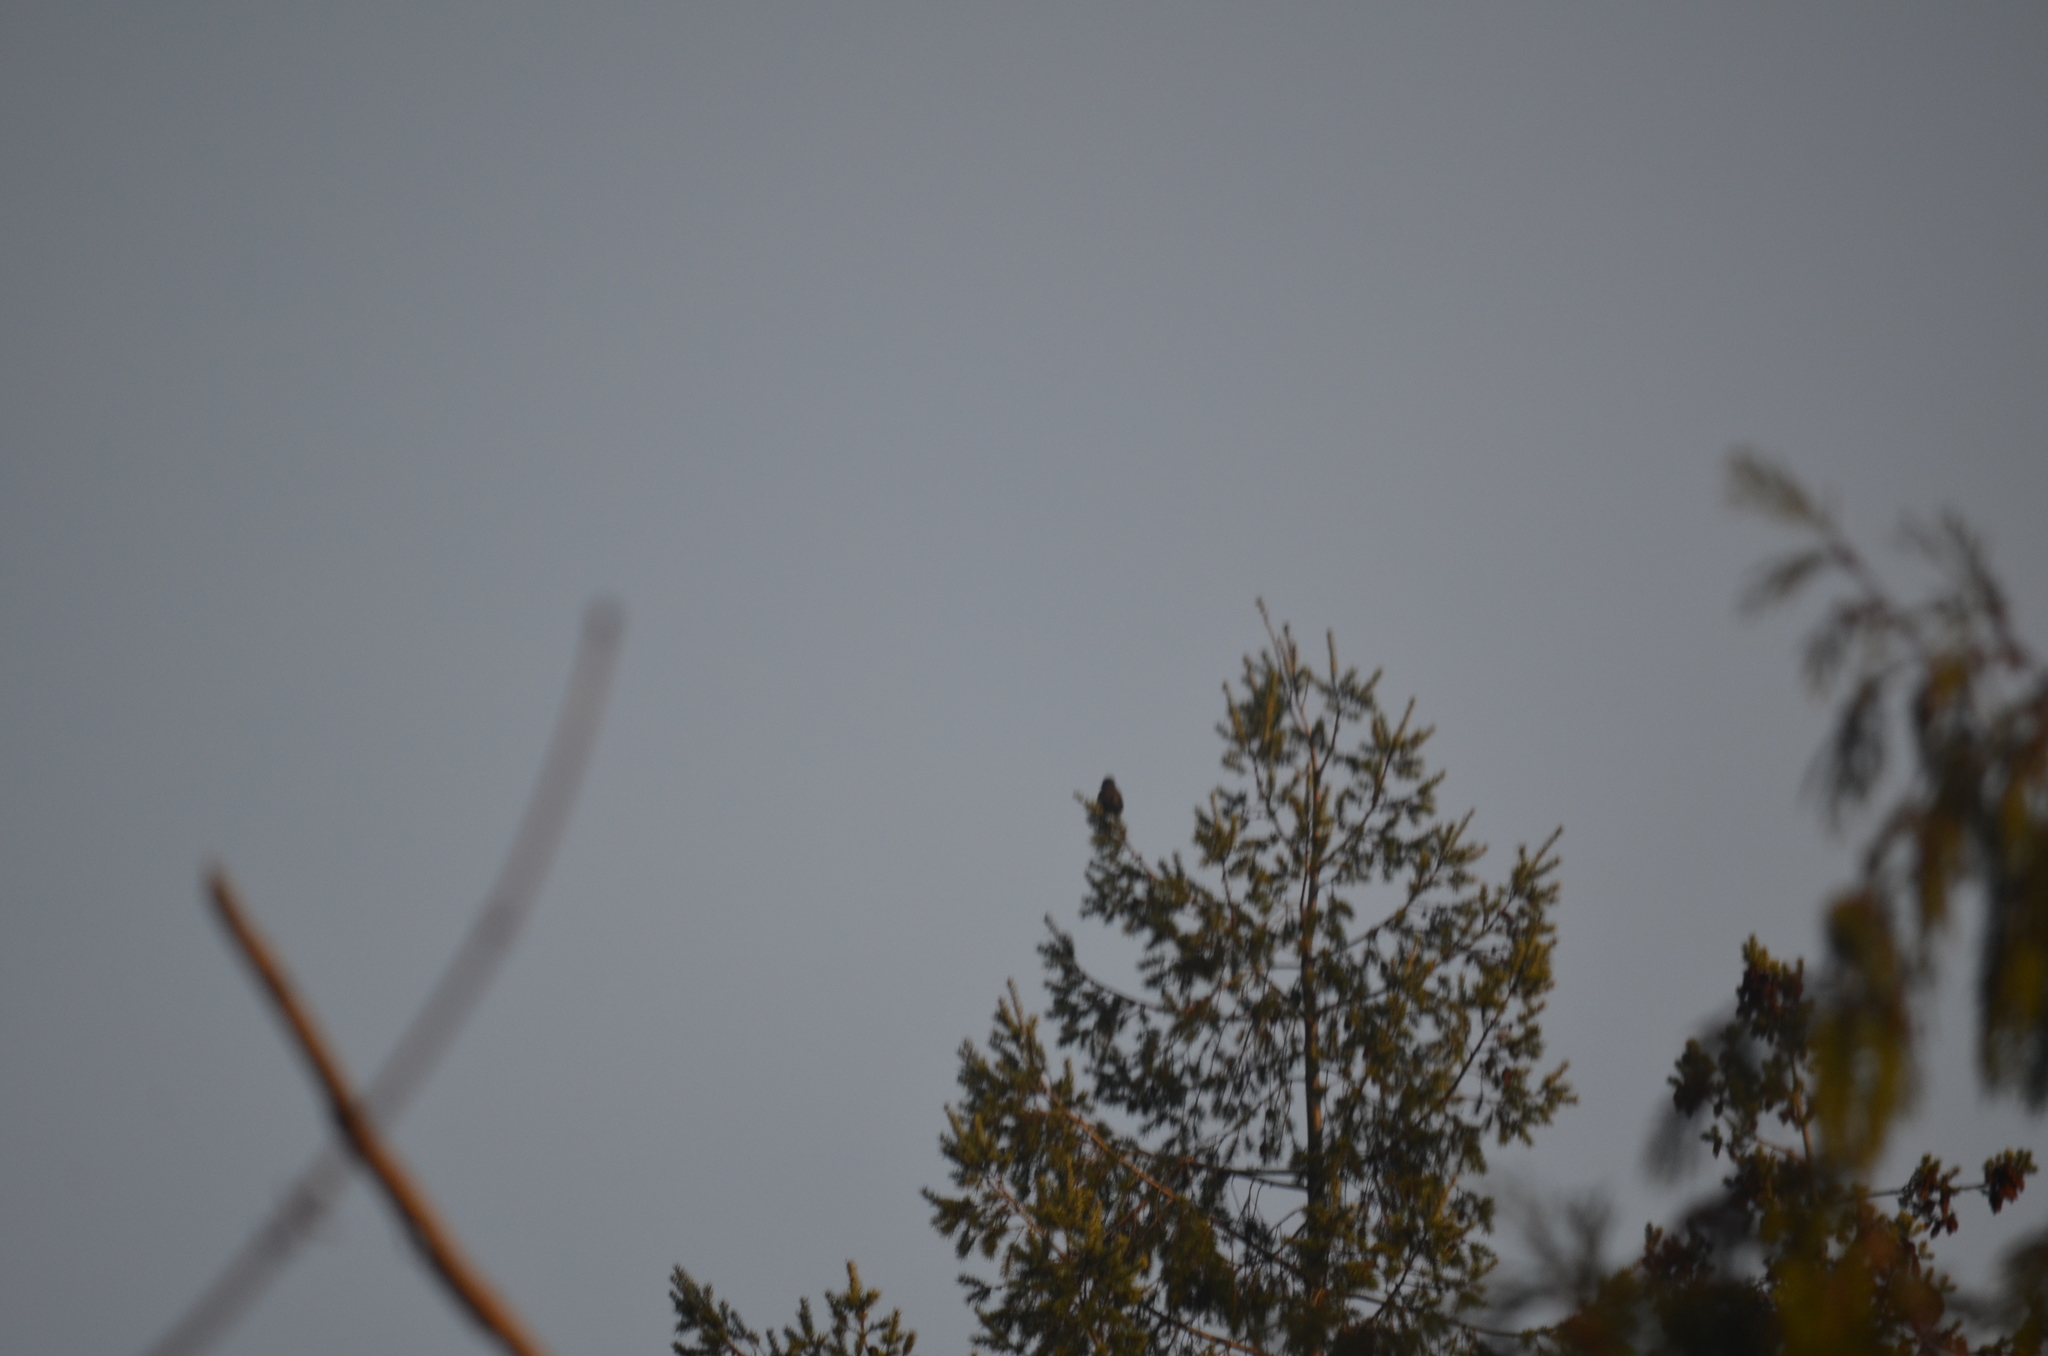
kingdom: Animalia
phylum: Chordata
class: Aves
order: Passeriformes
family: Sturnidae
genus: Sturnus
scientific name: Sturnus vulgaris
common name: Common starling
